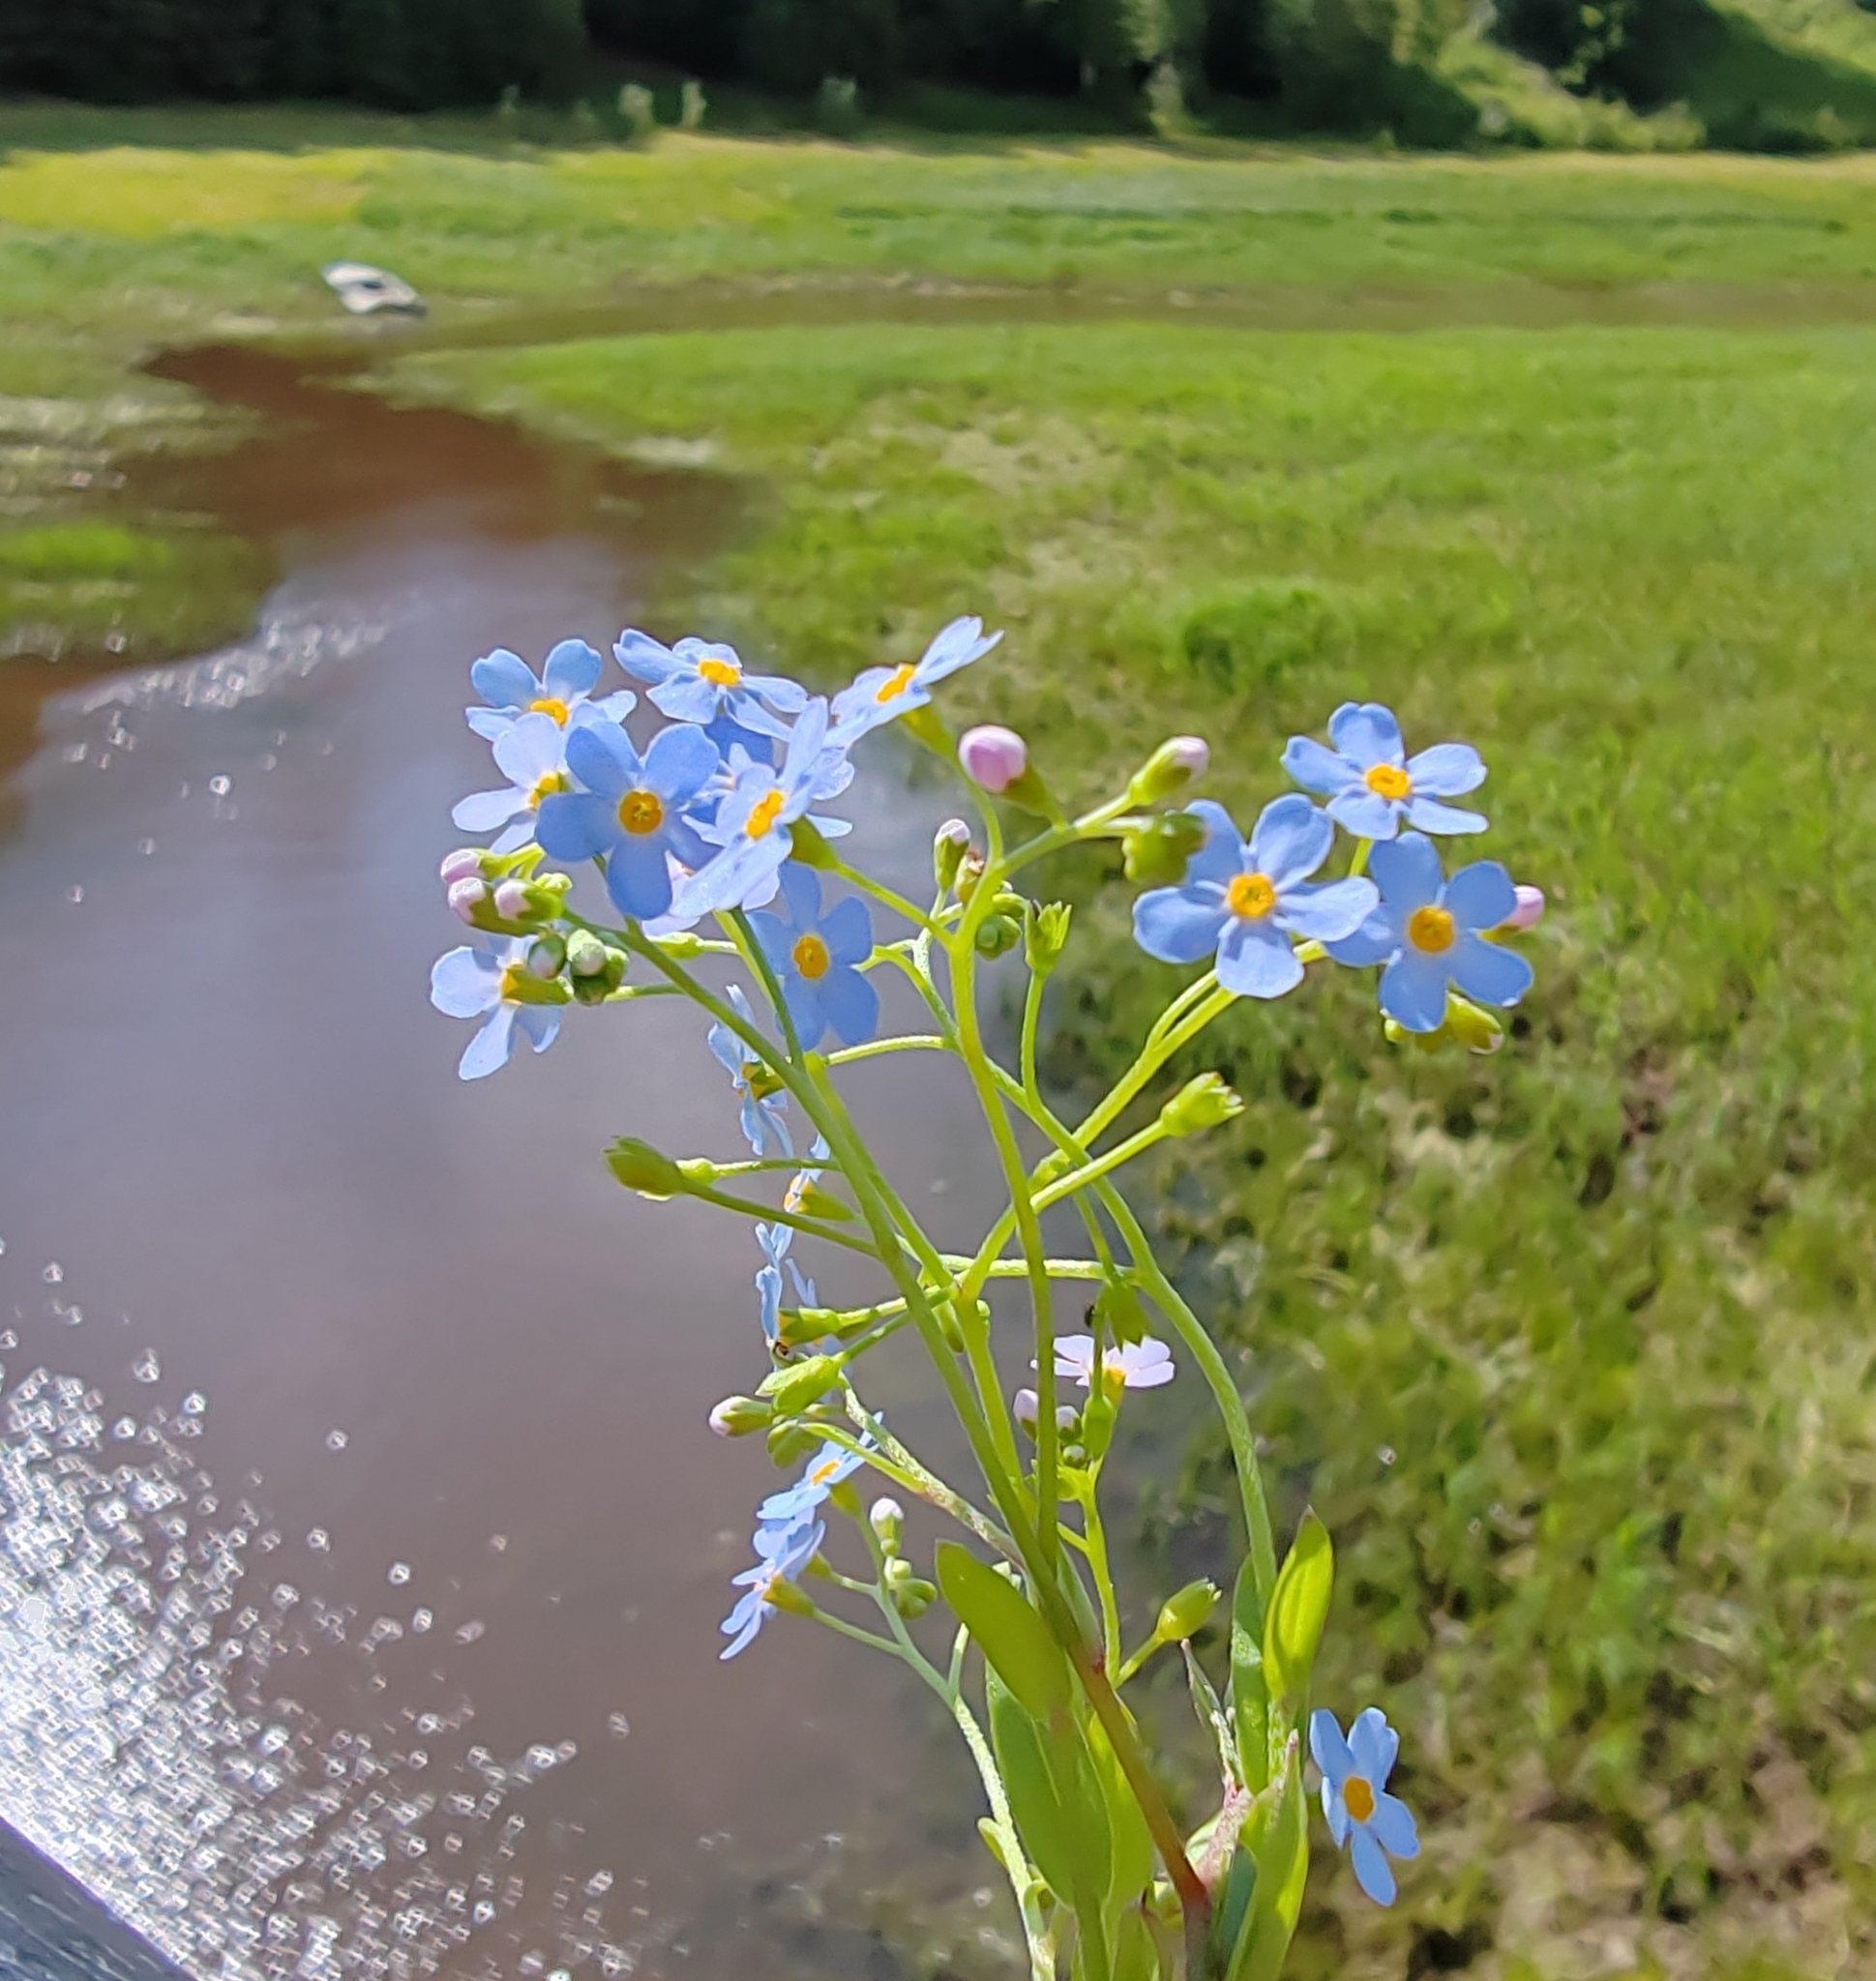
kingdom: Plantae
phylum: Tracheophyta
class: Magnoliopsida
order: Boraginales
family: Boraginaceae
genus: Myosotis
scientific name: Myosotis scorpioides
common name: Water forget-me-not
